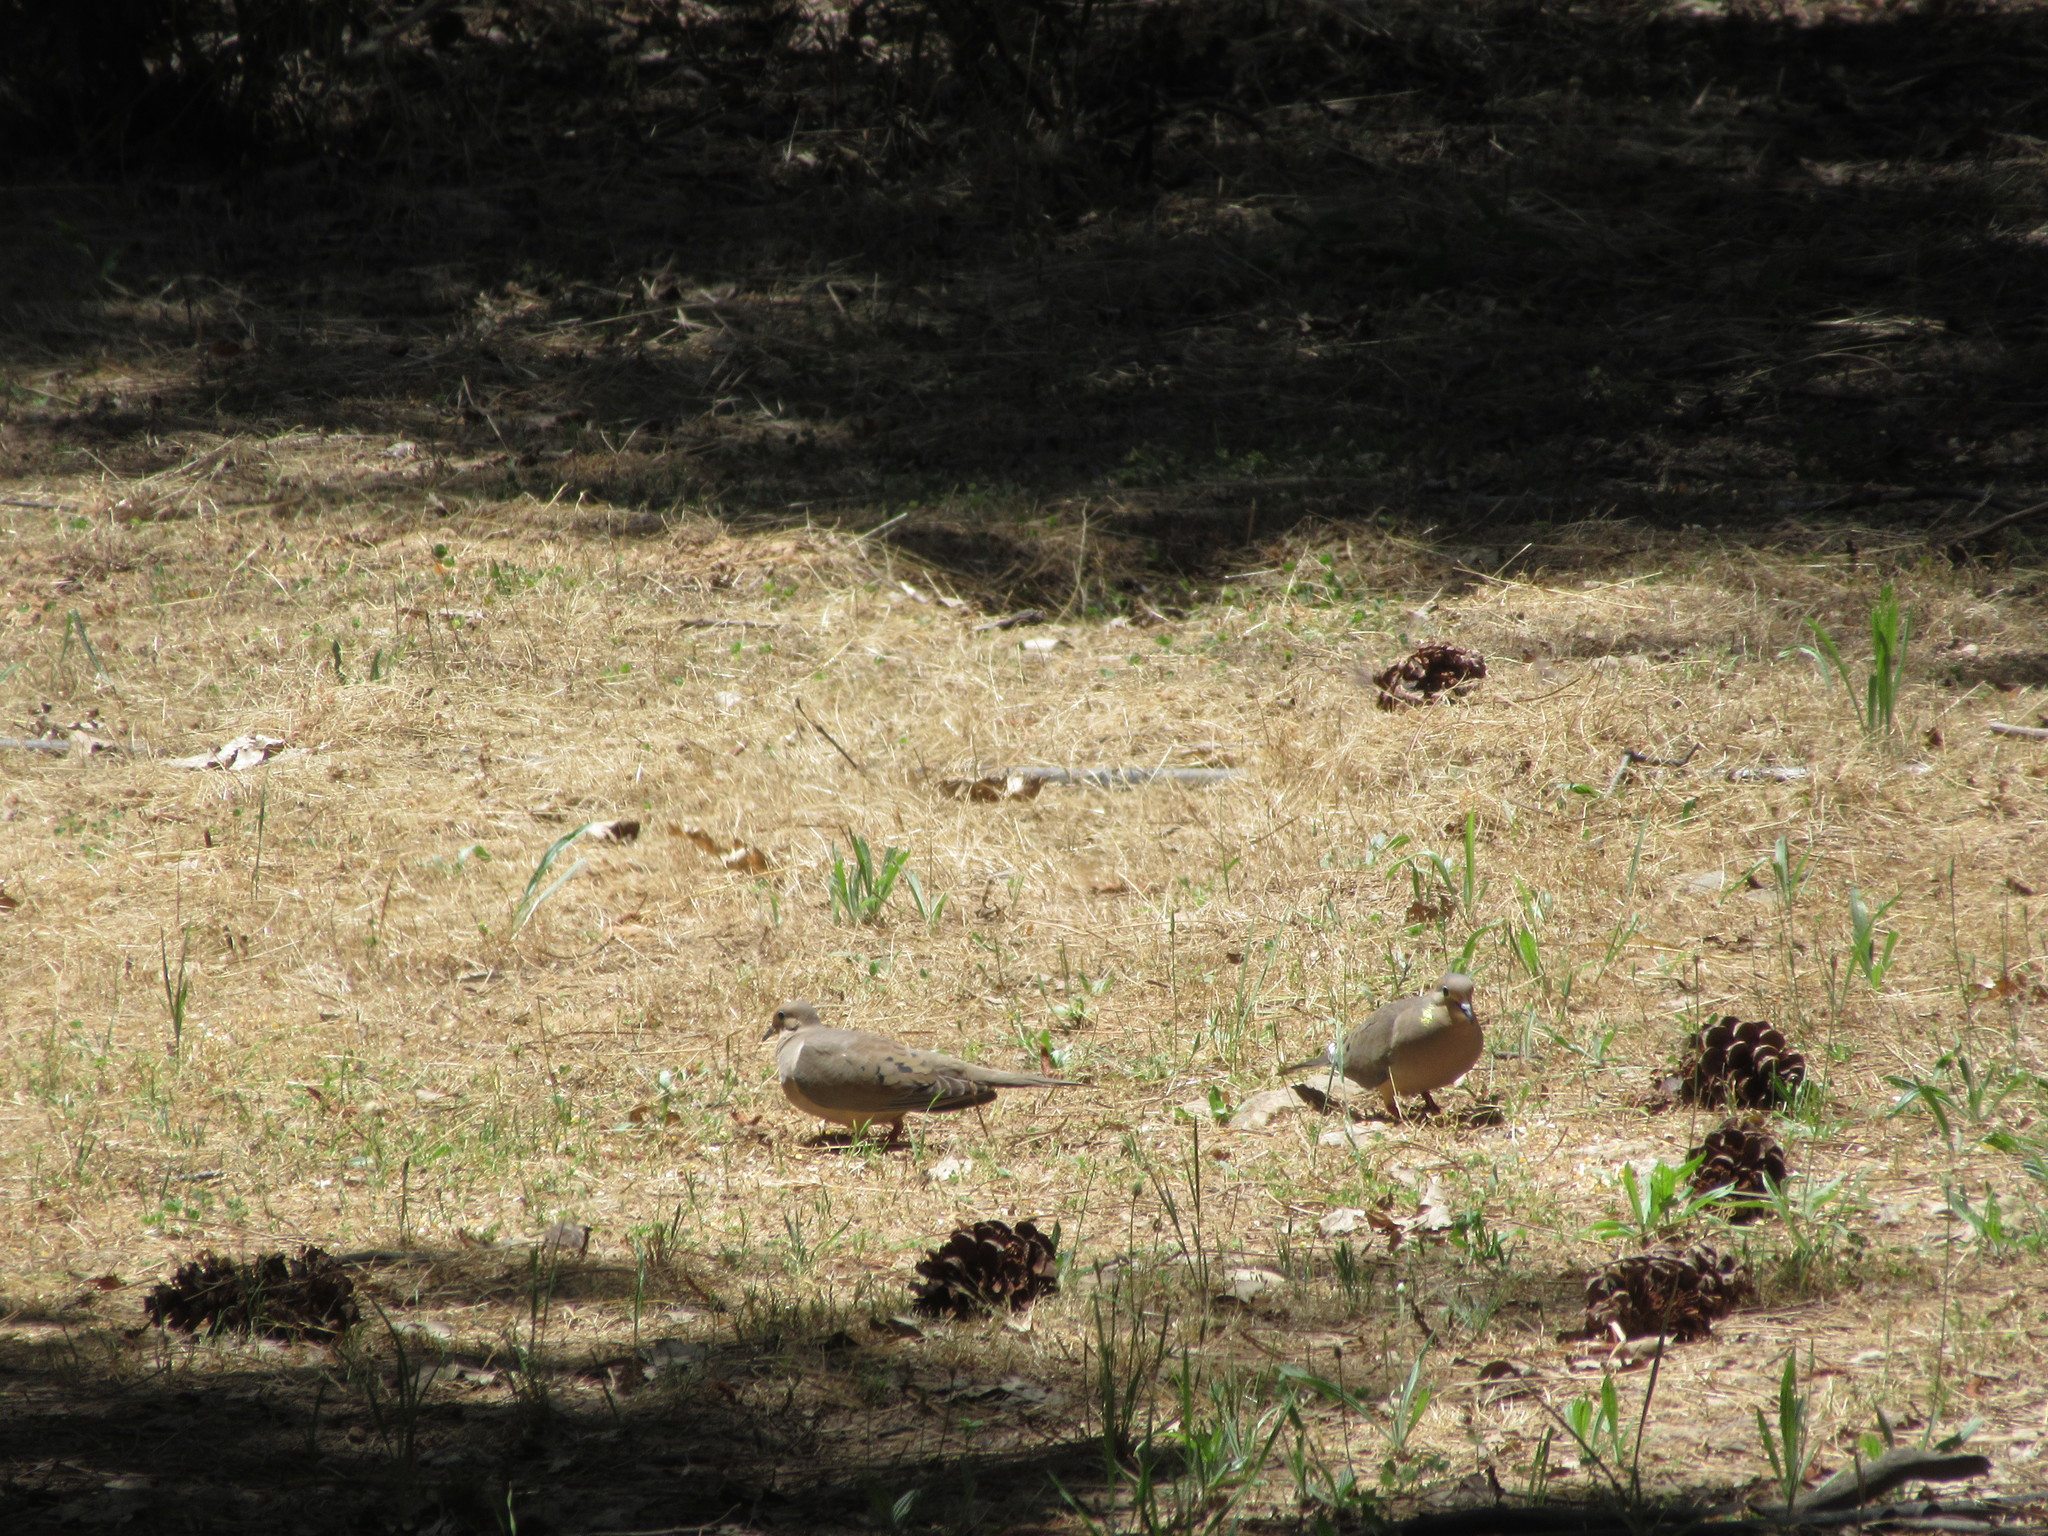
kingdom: Animalia
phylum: Chordata
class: Aves
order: Columbiformes
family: Columbidae
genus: Zenaida
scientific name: Zenaida macroura
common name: Mourning dove
